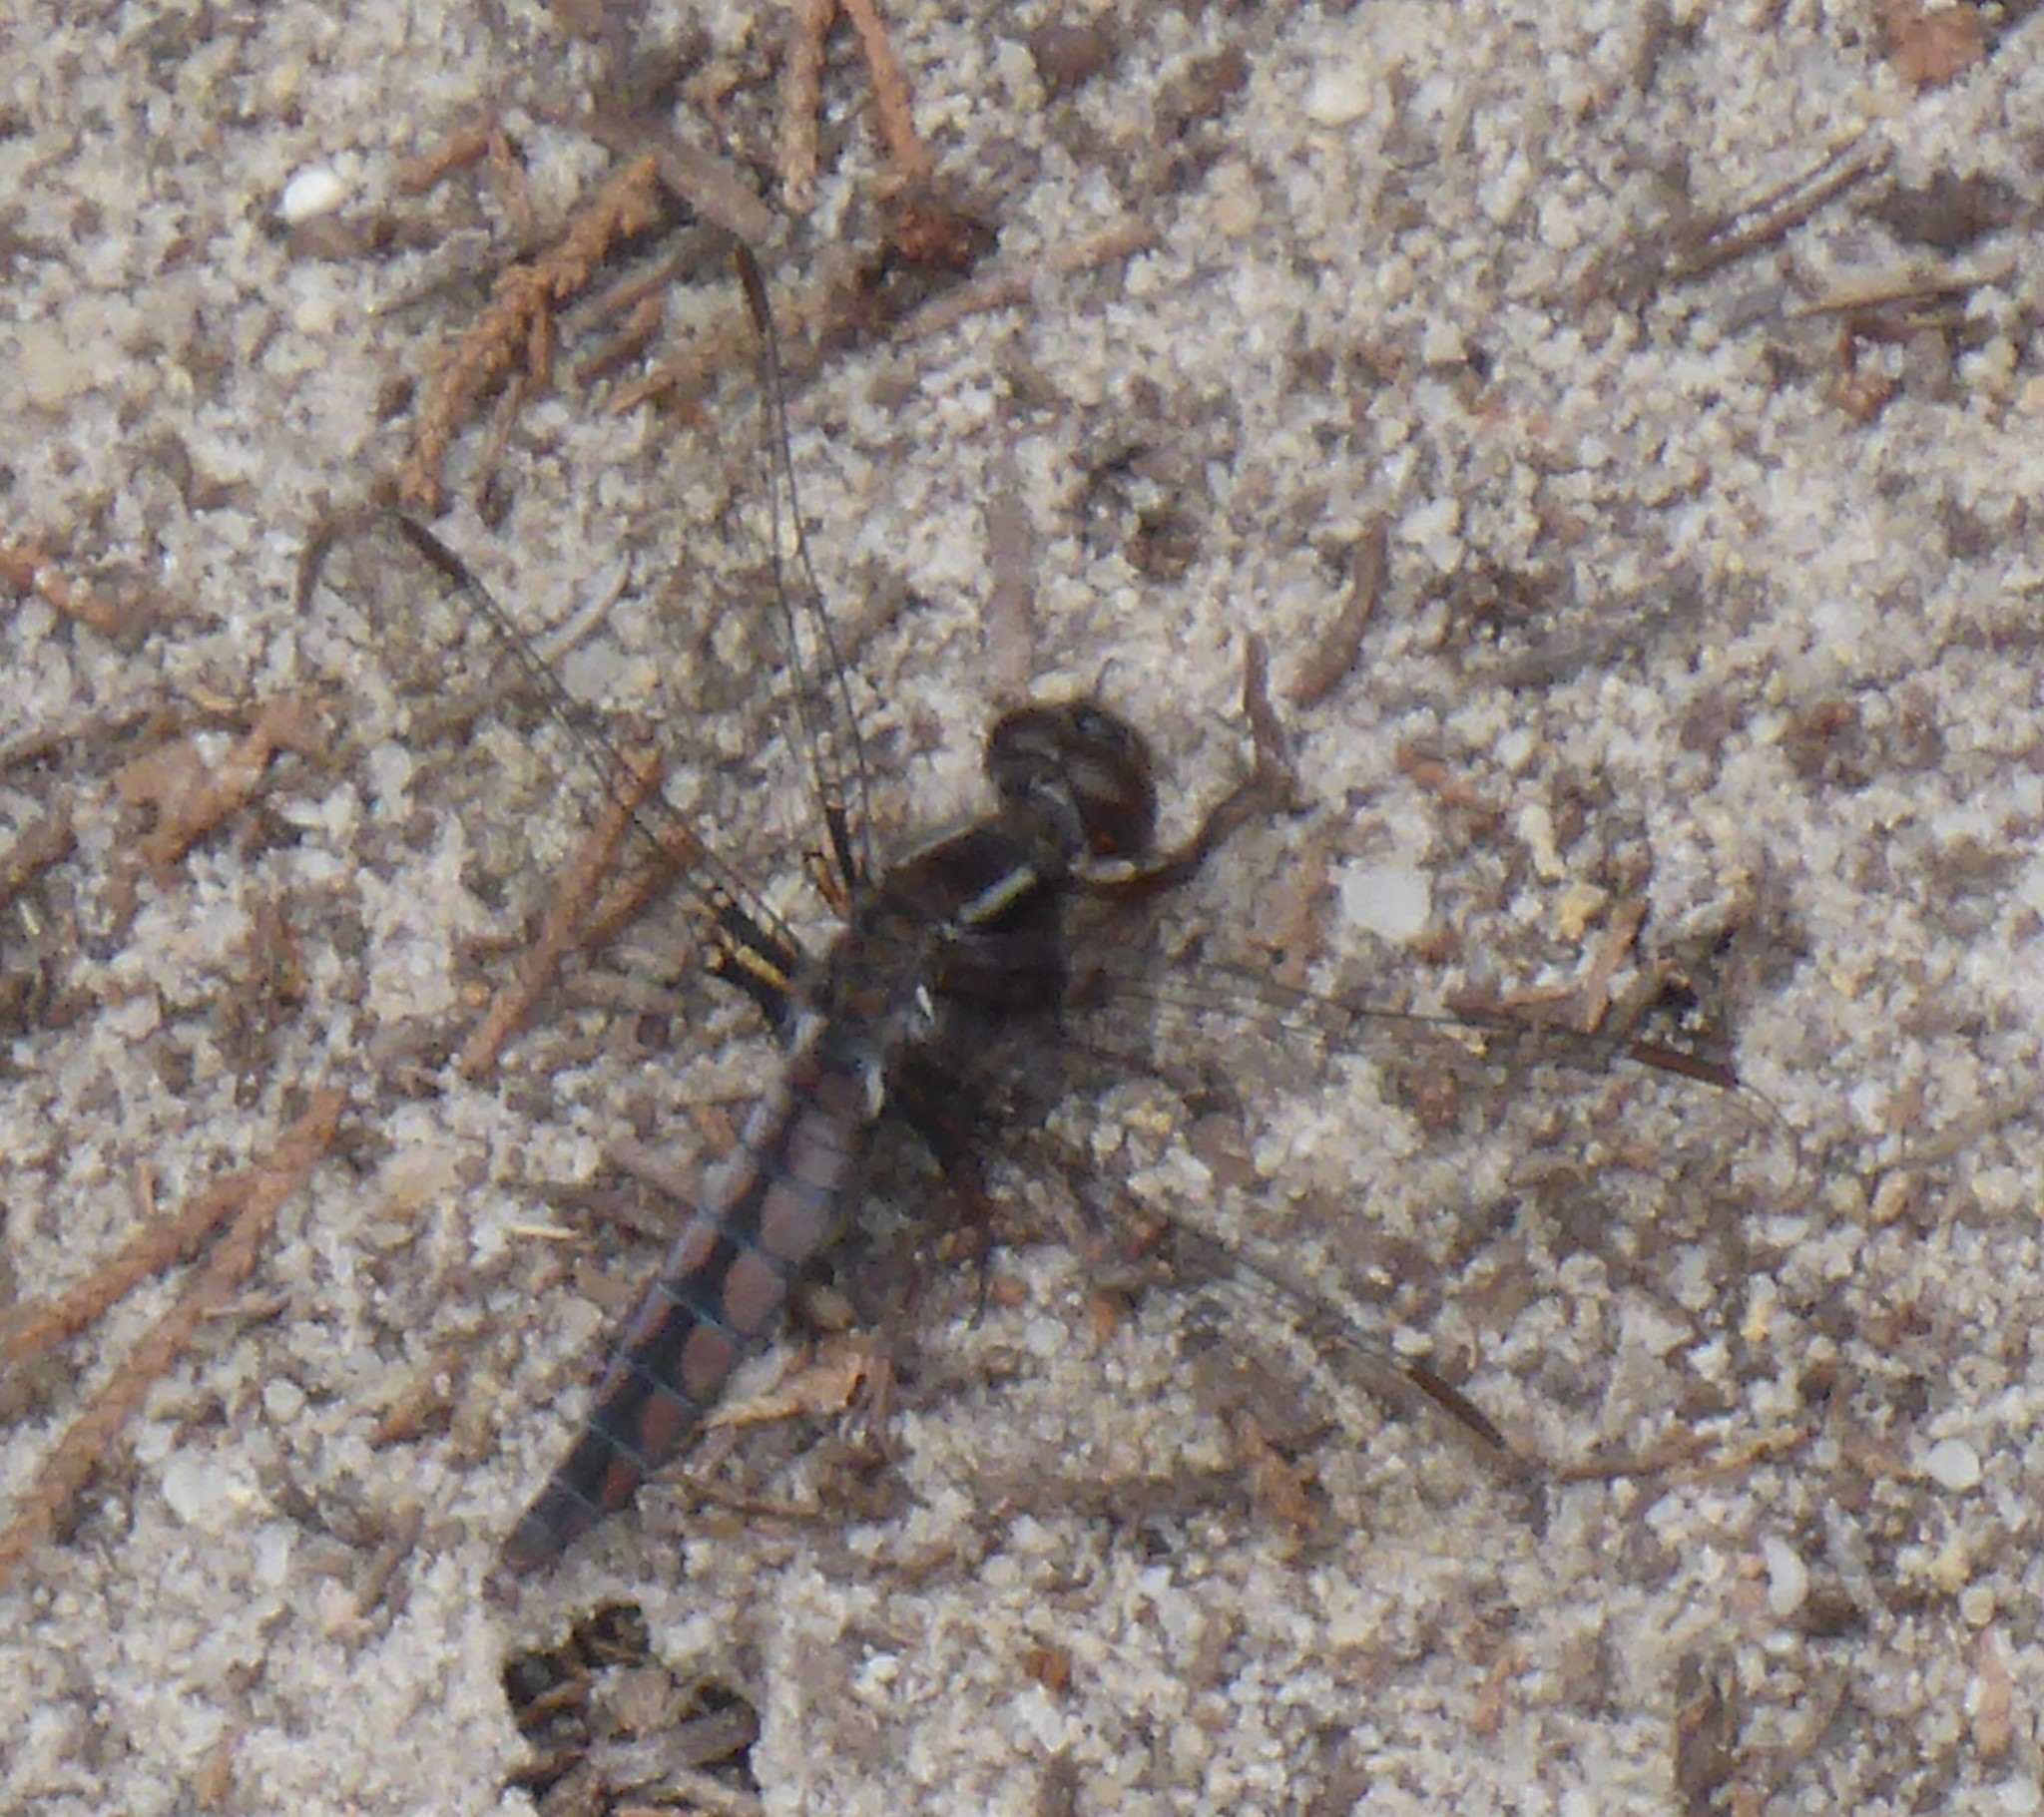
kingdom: Animalia
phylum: Arthropoda
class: Insecta
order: Odonata
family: Libellulidae
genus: Ladona
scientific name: Ladona deplanata
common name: Blue corporal
